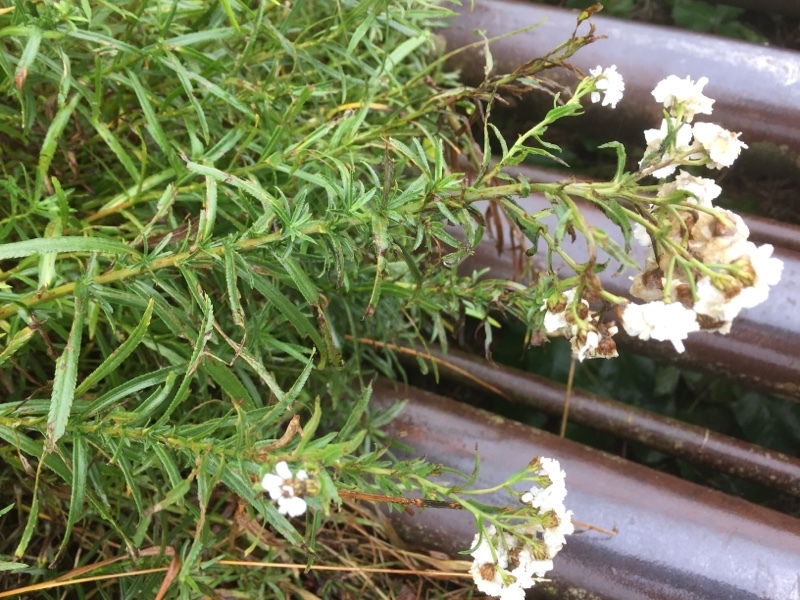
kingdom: Plantae
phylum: Tracheophyta
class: Magnoliopsida
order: Asterales
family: Asteraceae
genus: Achillea
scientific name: Achillea ptarmica
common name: Sneezeweed
